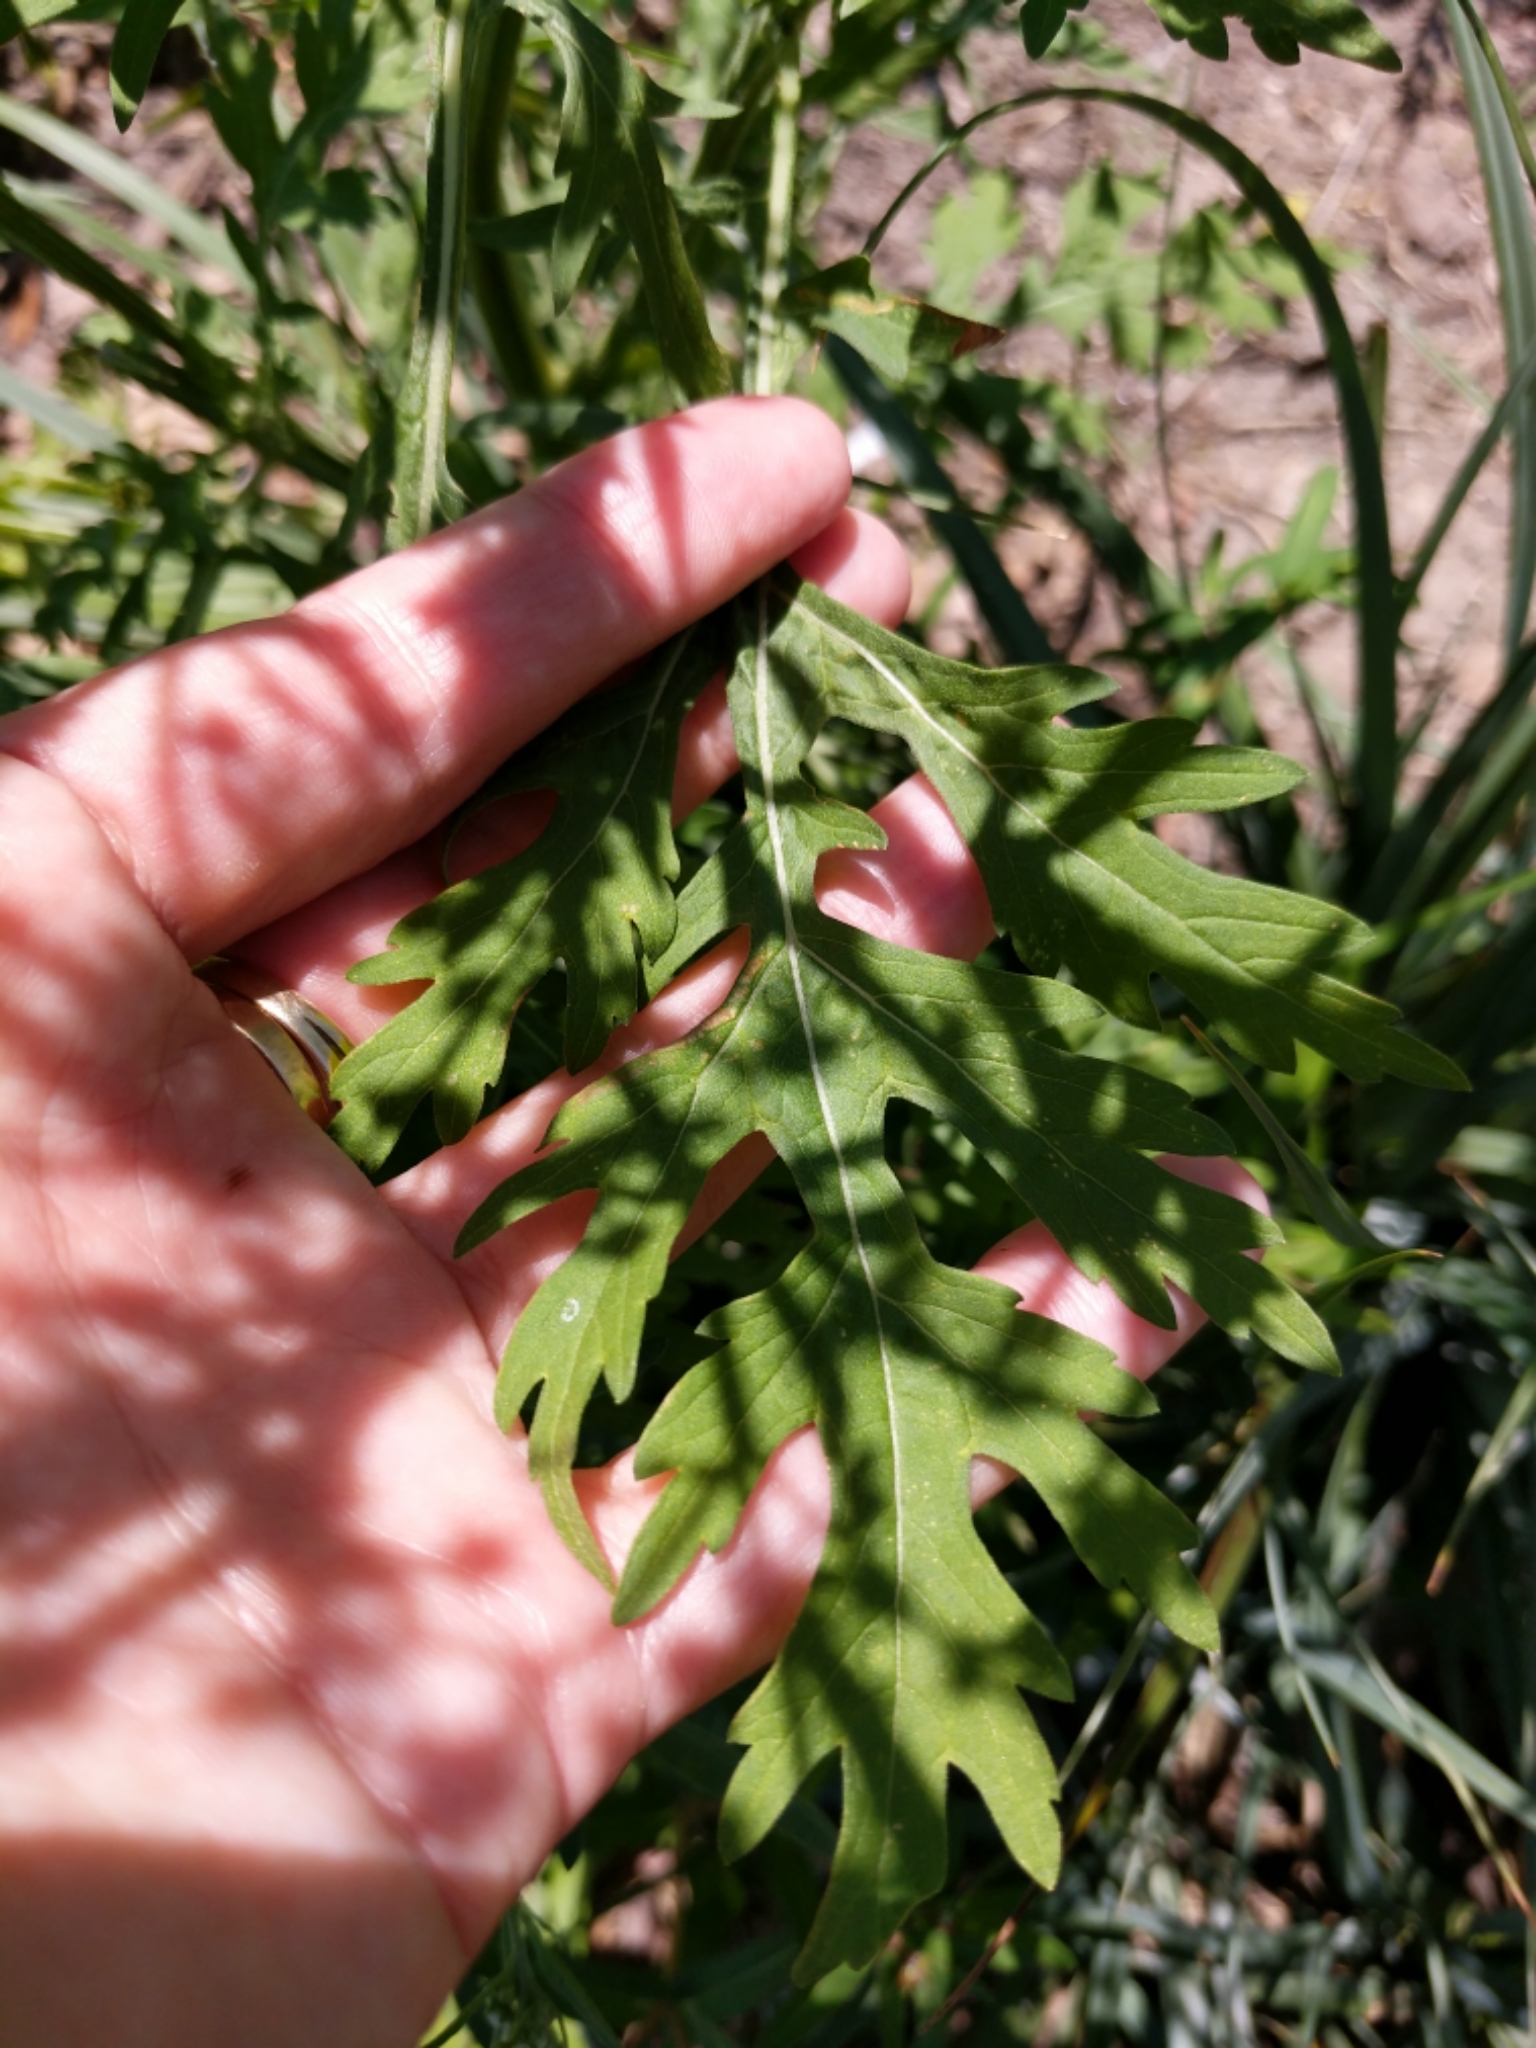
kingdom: Plantae
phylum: Tracheophyta
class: Magnoliopsida
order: Asterales
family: Asteraceae
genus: Parthenium
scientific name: Parthenium hysterophorus
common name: Santa maria feverfew
